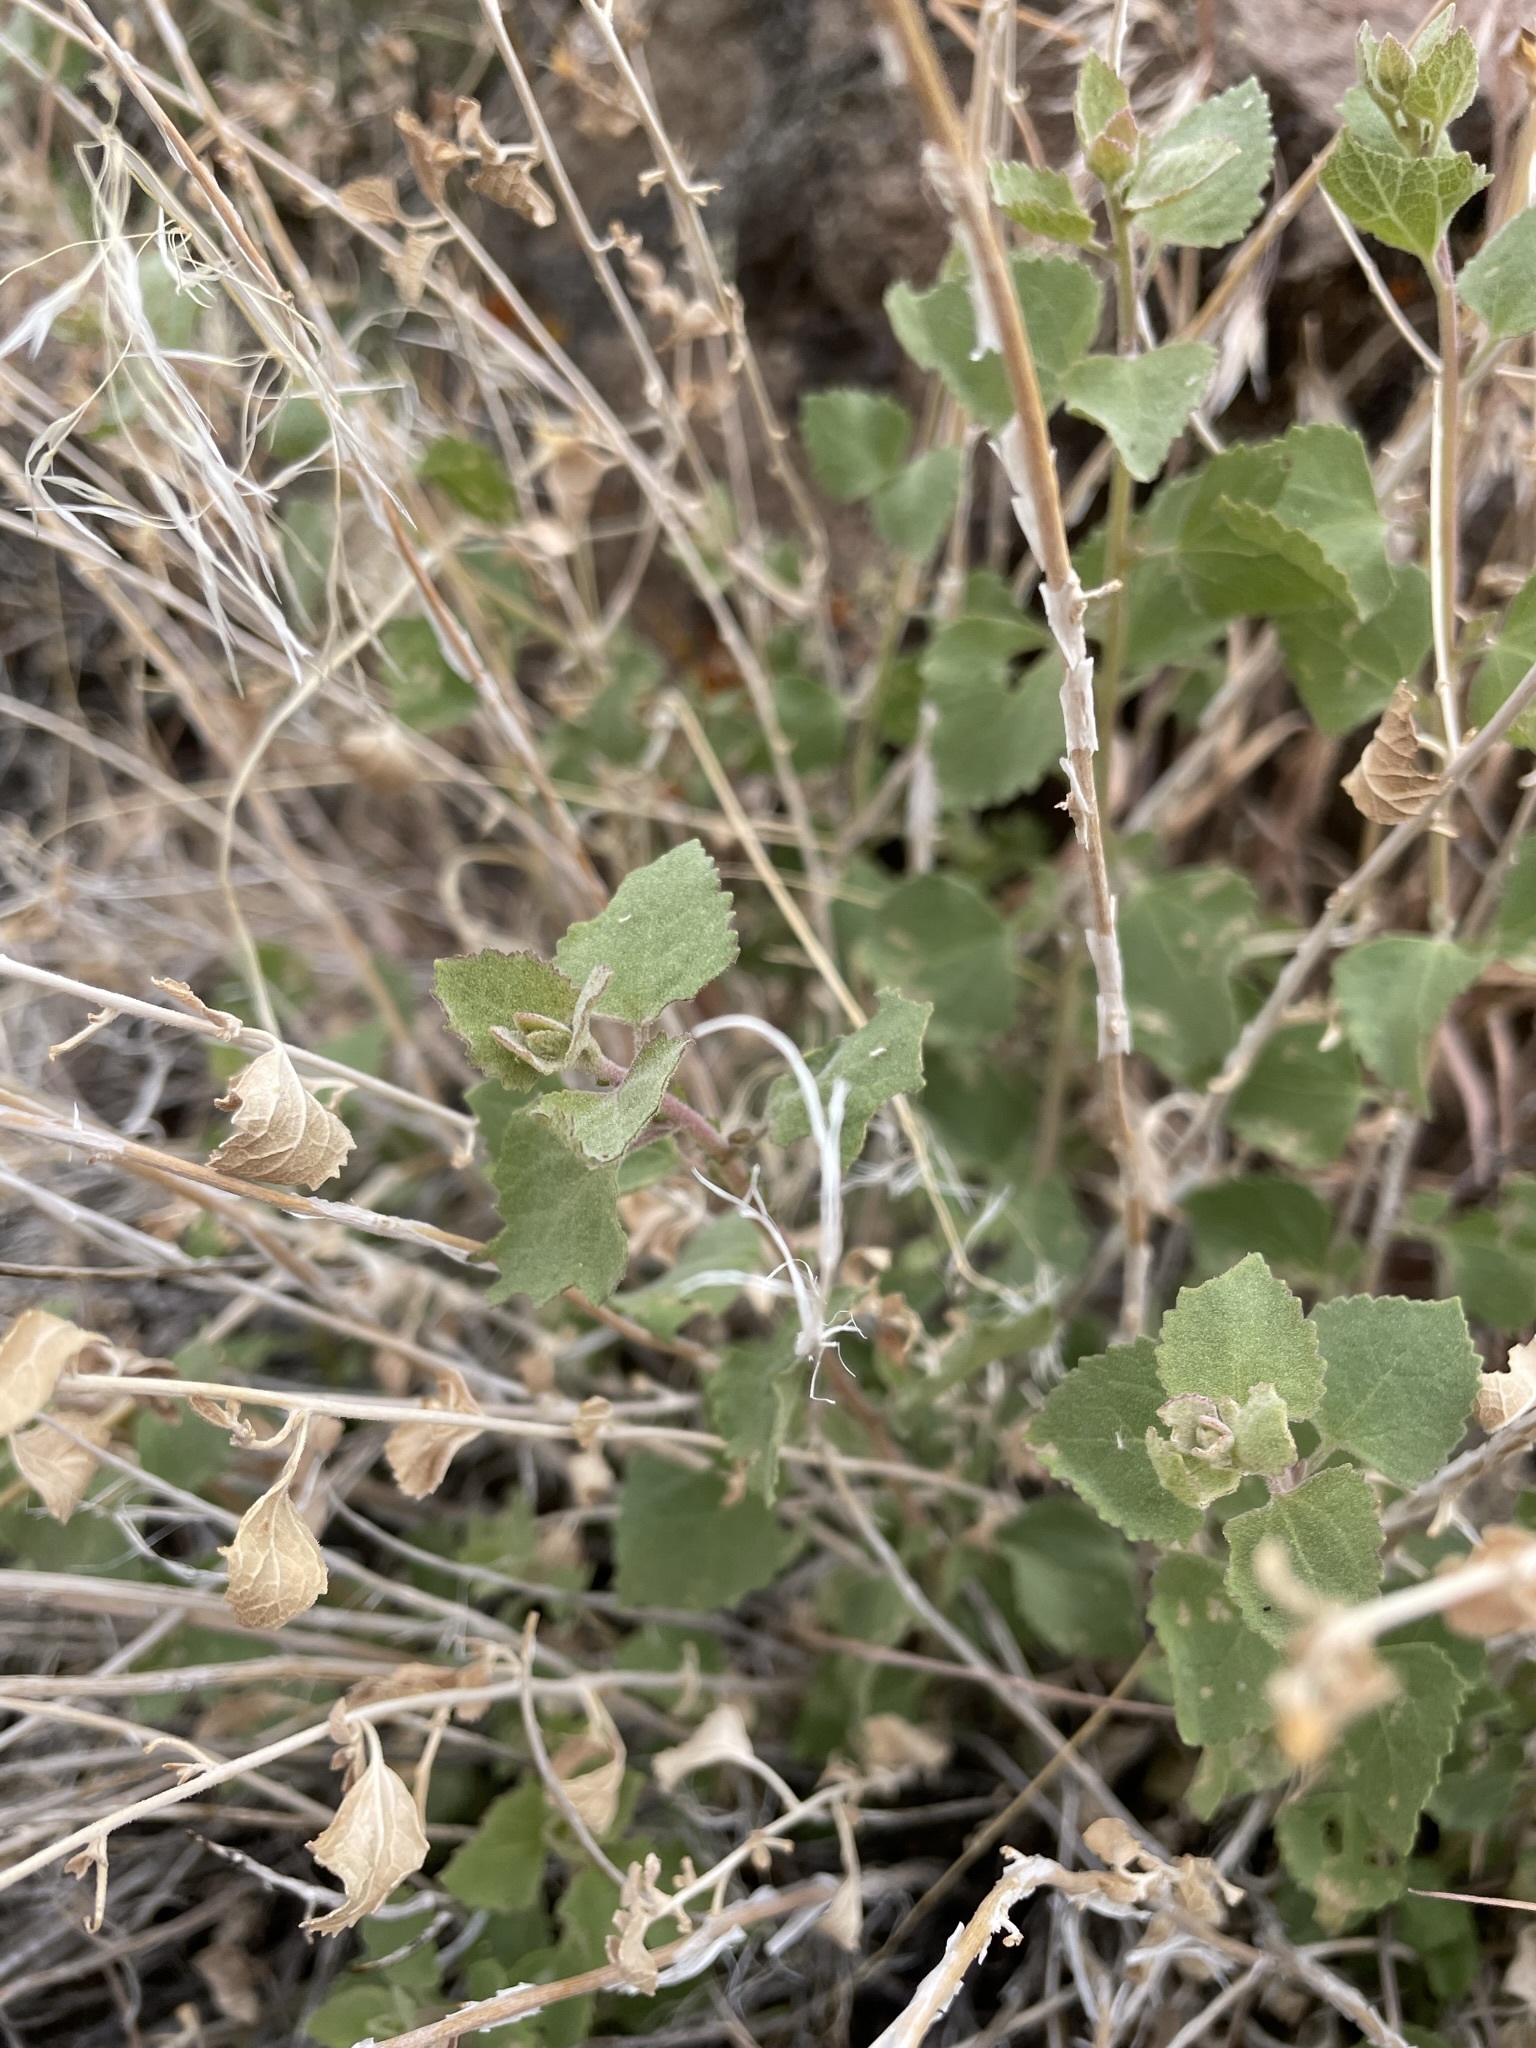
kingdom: Plantae
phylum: Tracheophyta
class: Magnoliopsida
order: Asterales
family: Asteraceae
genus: Brickellia
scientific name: Brickellia californica
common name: California brickellbush
